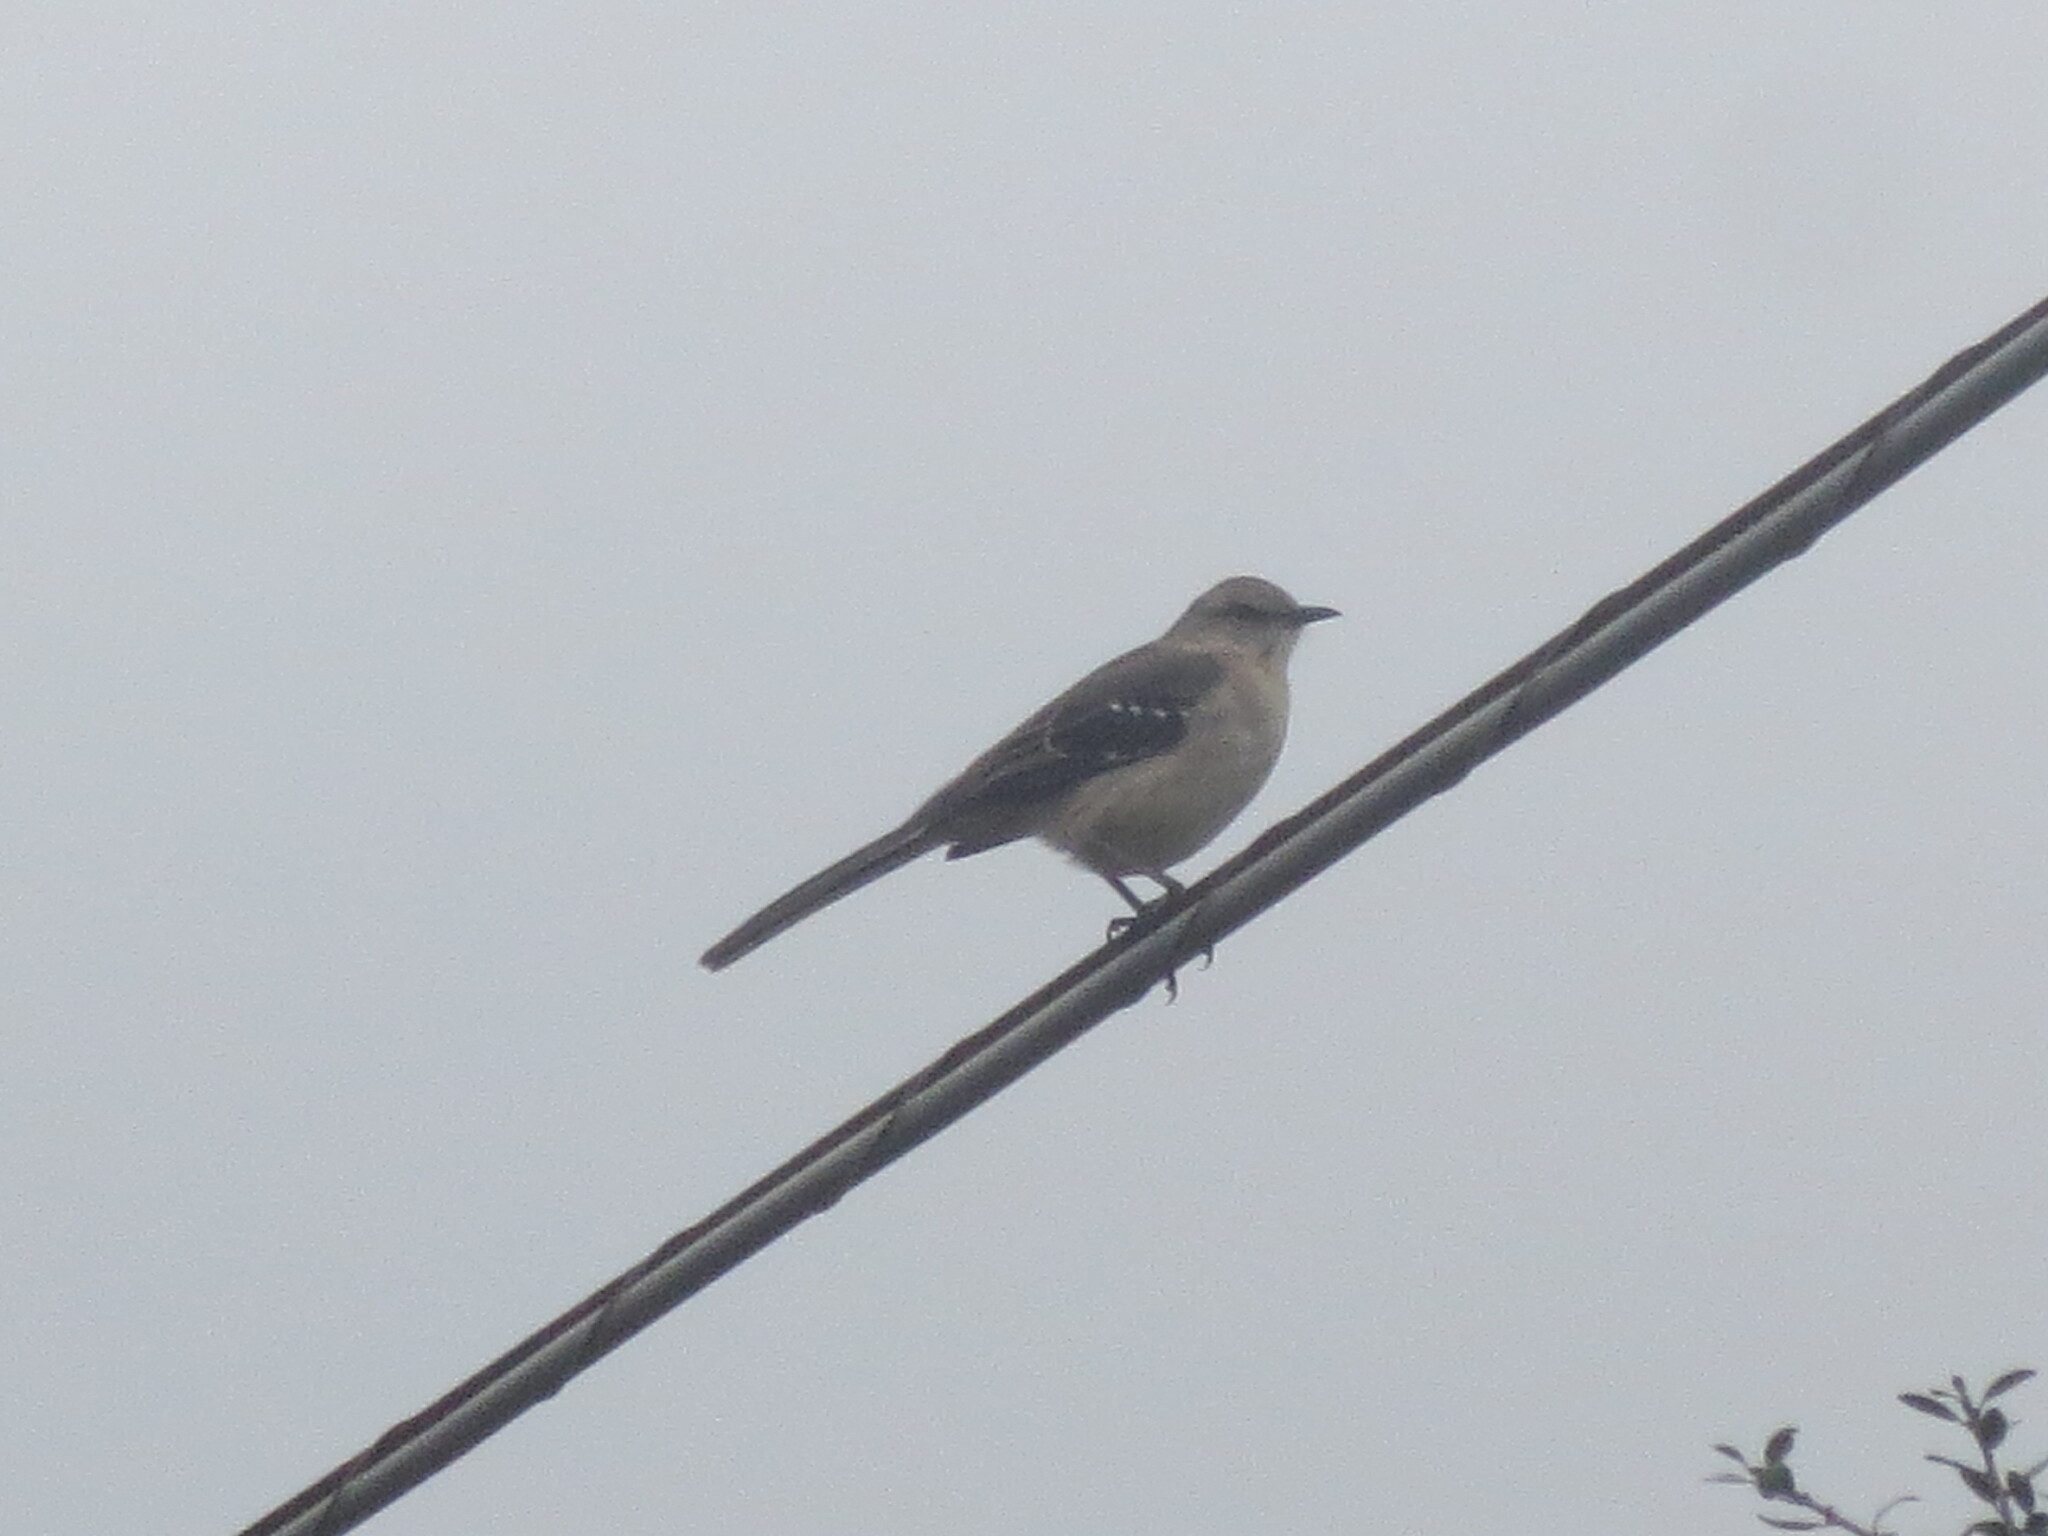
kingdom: Animalia
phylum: Chordata
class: Aves
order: Passeriformes
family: Mimidae
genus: Mimus
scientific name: Mimus polyglottos
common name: Northern mockingbird
